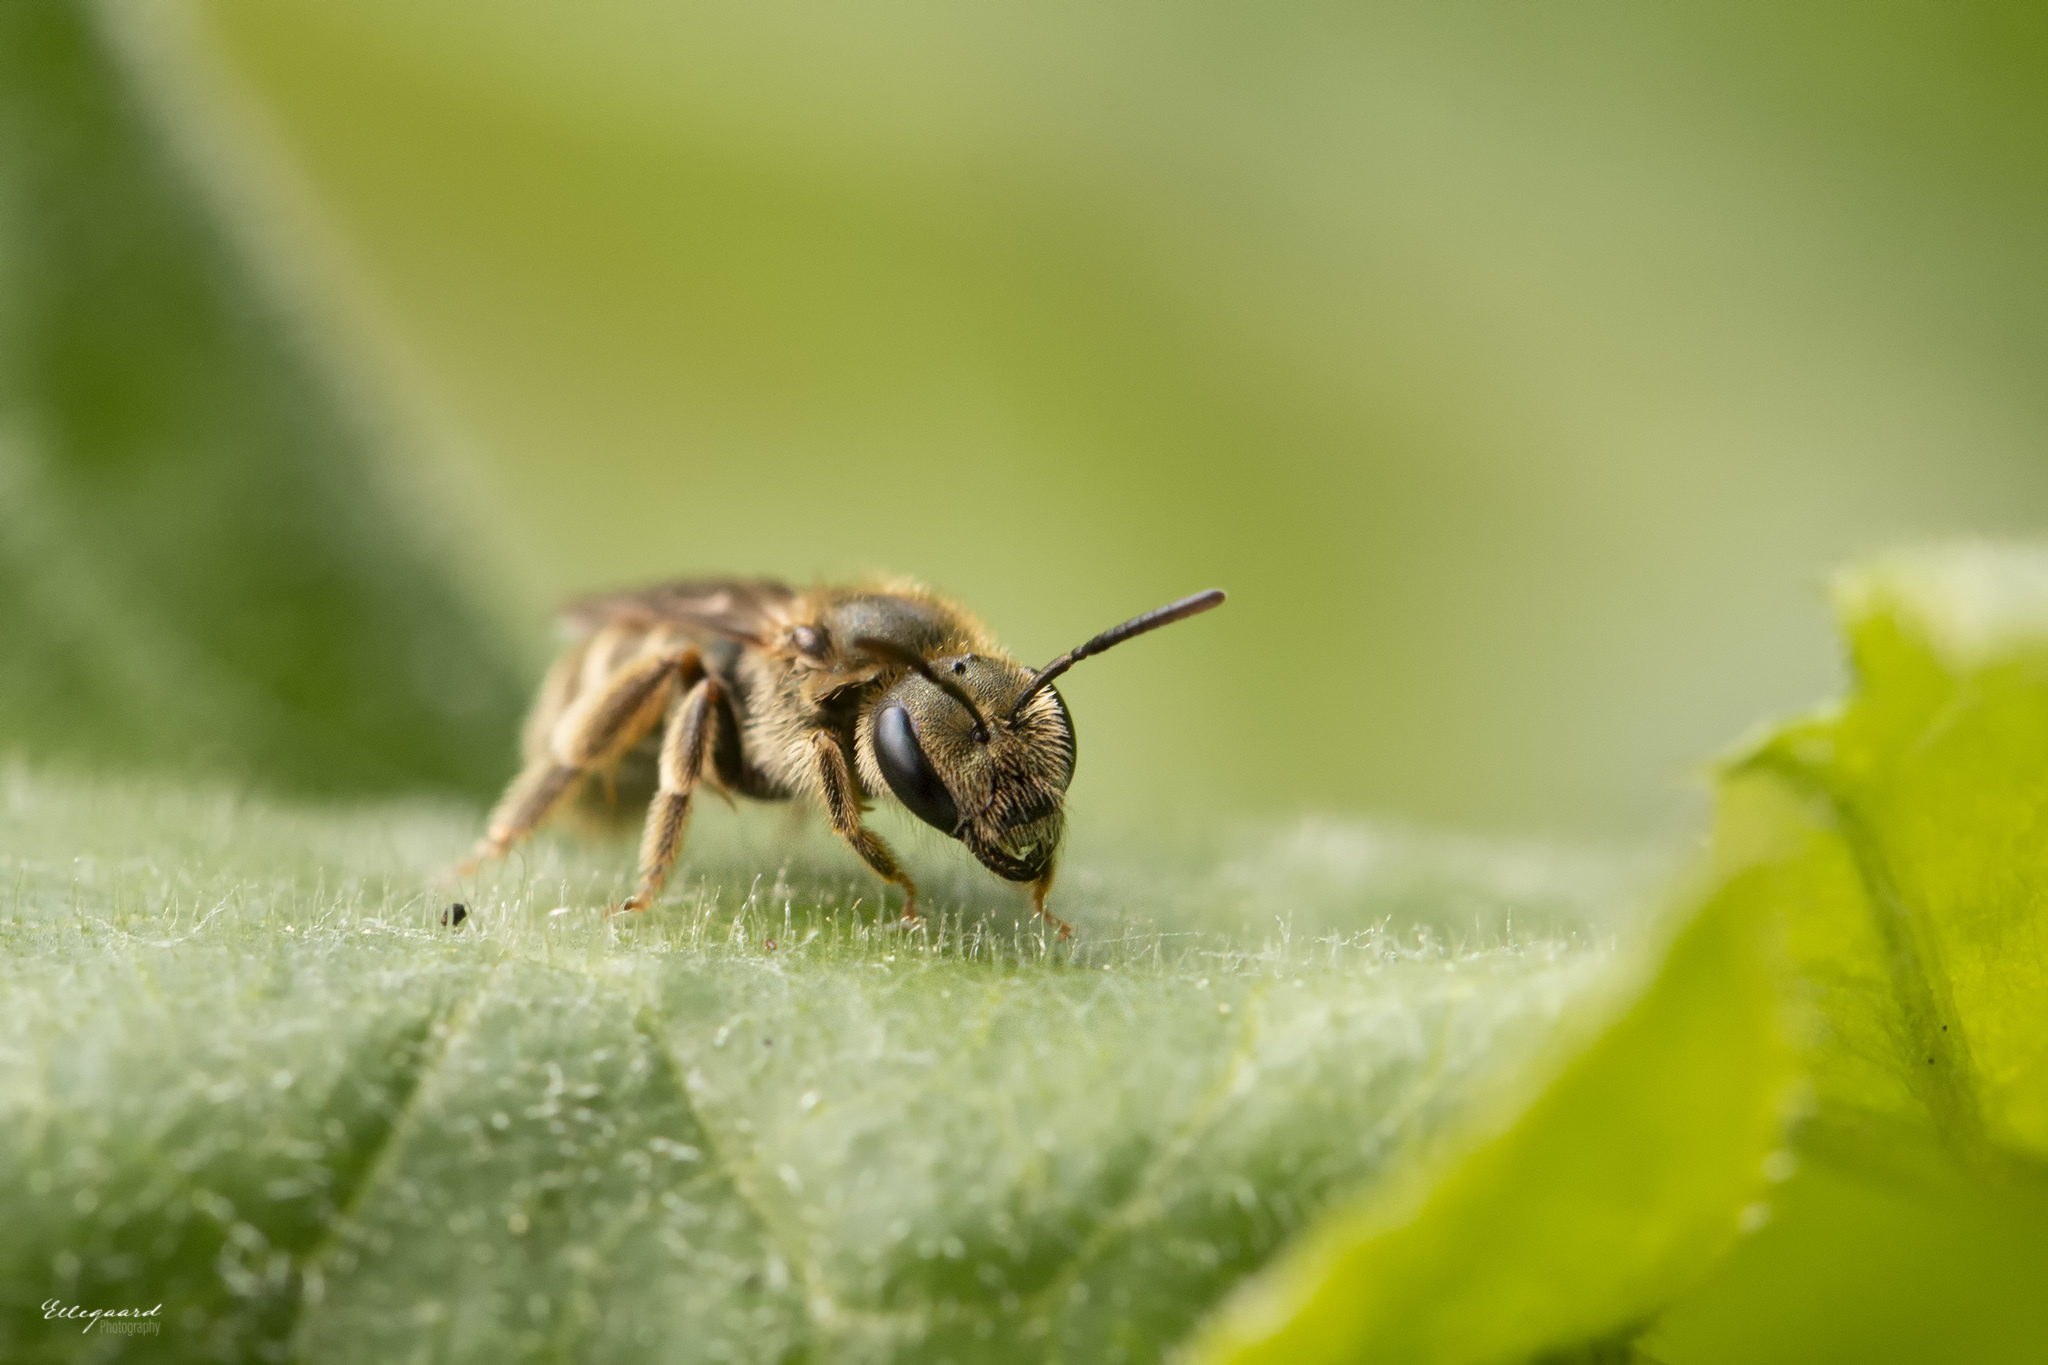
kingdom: Animalia
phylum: Arthropoda
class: Insecta
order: Hymenoptera
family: Halictidae
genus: Halictus
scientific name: Halictus tumulorum
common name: Bronze furrow bee
